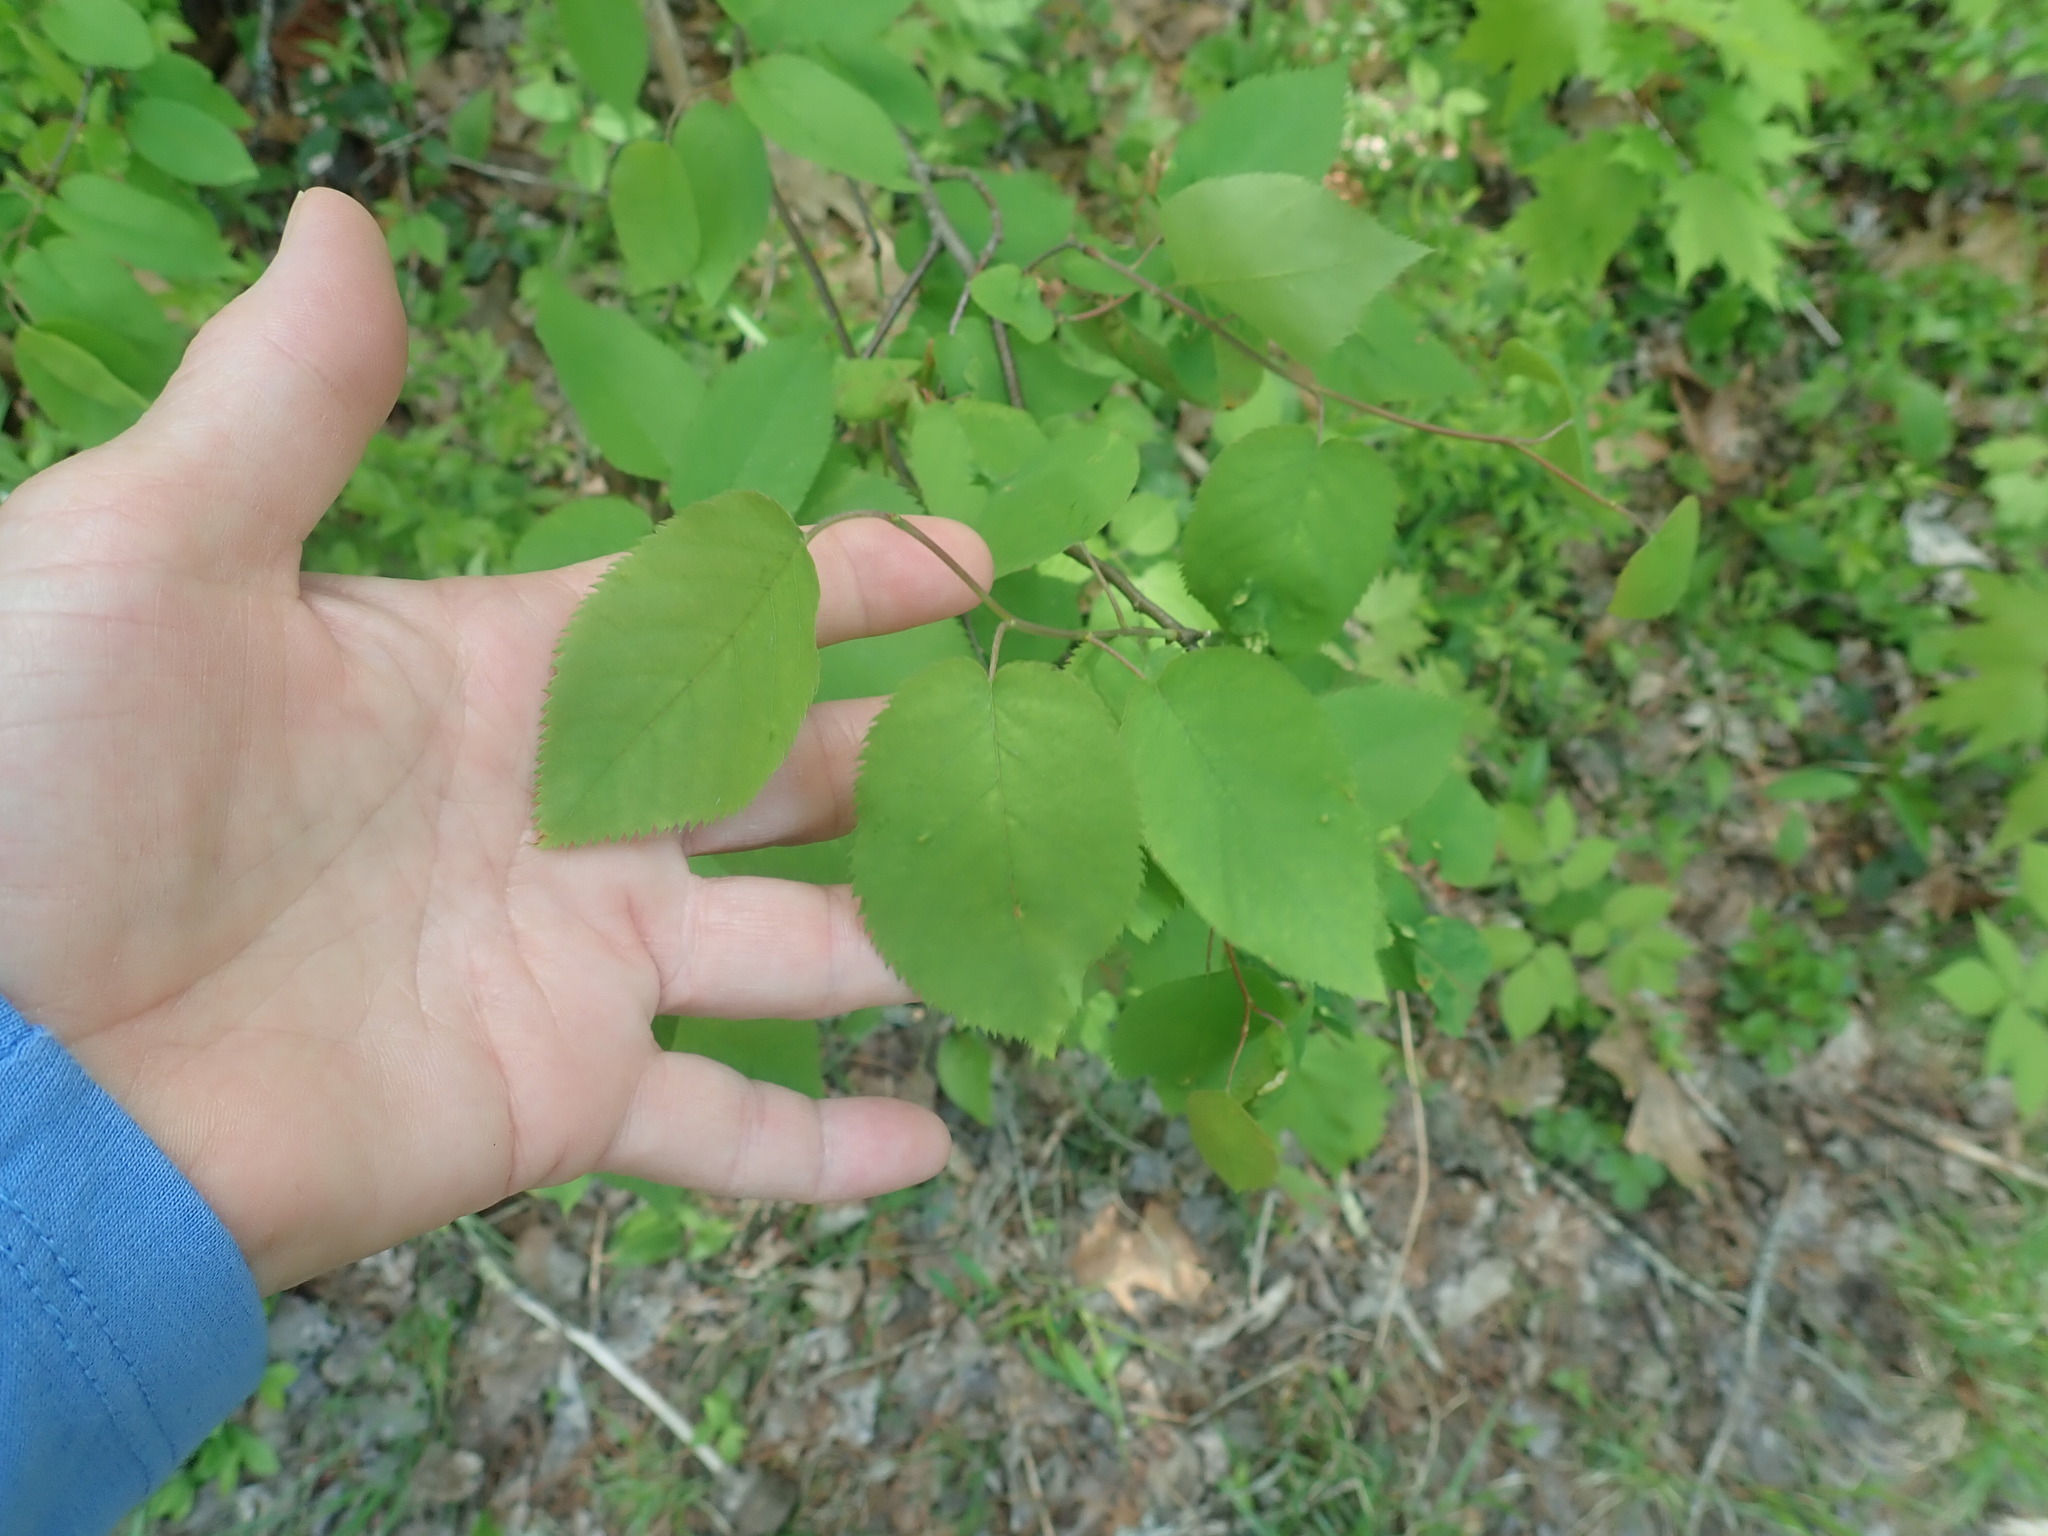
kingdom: Plantae
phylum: Tracheophyta
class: Magnoliopsida
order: Rosales
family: Rosaceae
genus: Amelanchier
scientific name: Amelanchier
